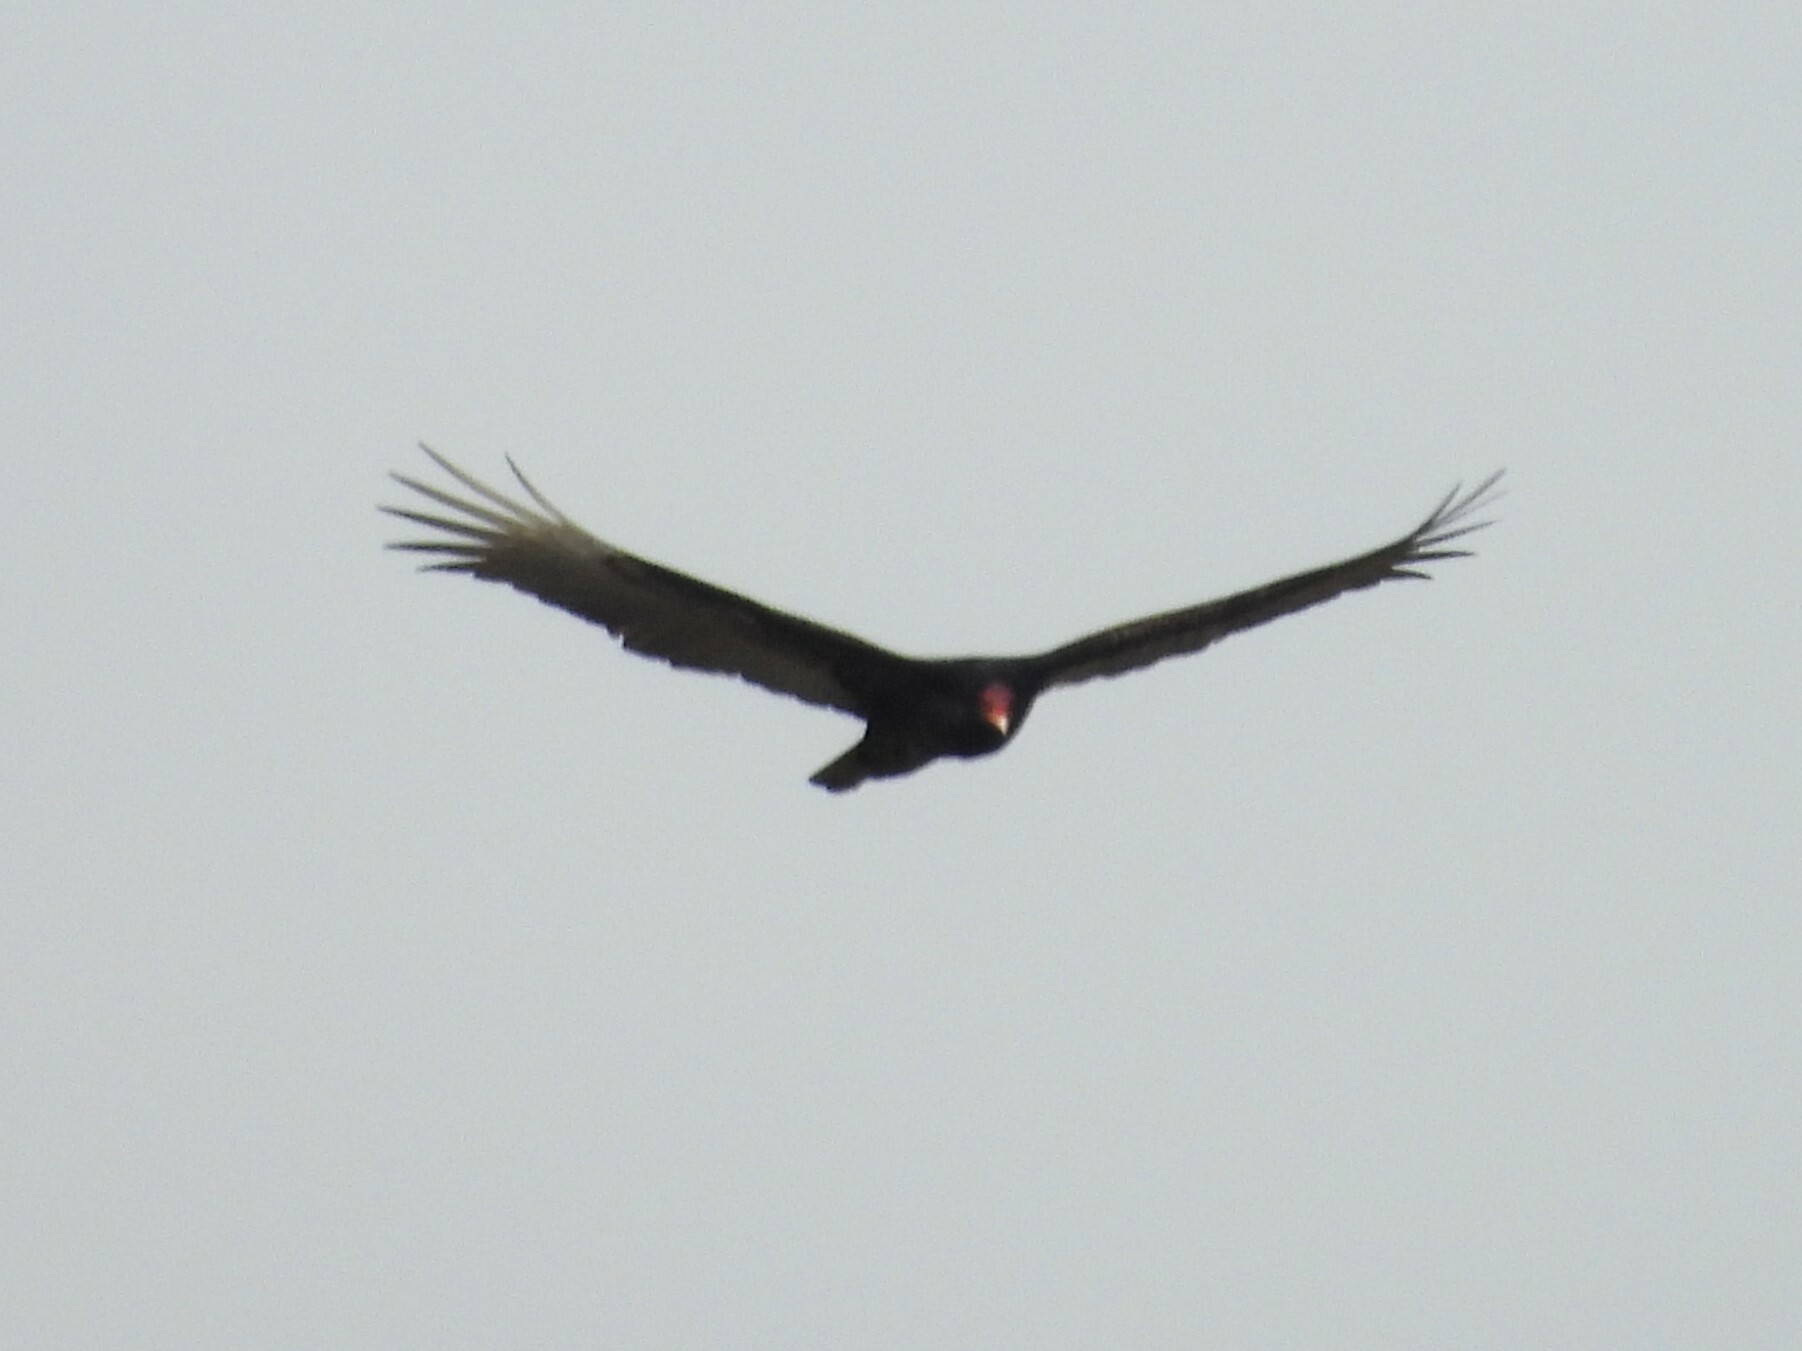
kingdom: Animalia
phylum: Chordata
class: Aves
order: Accipitriformes
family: Cathartidae
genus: Cathartes
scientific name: Cathartes aura
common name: Turkey vulture
